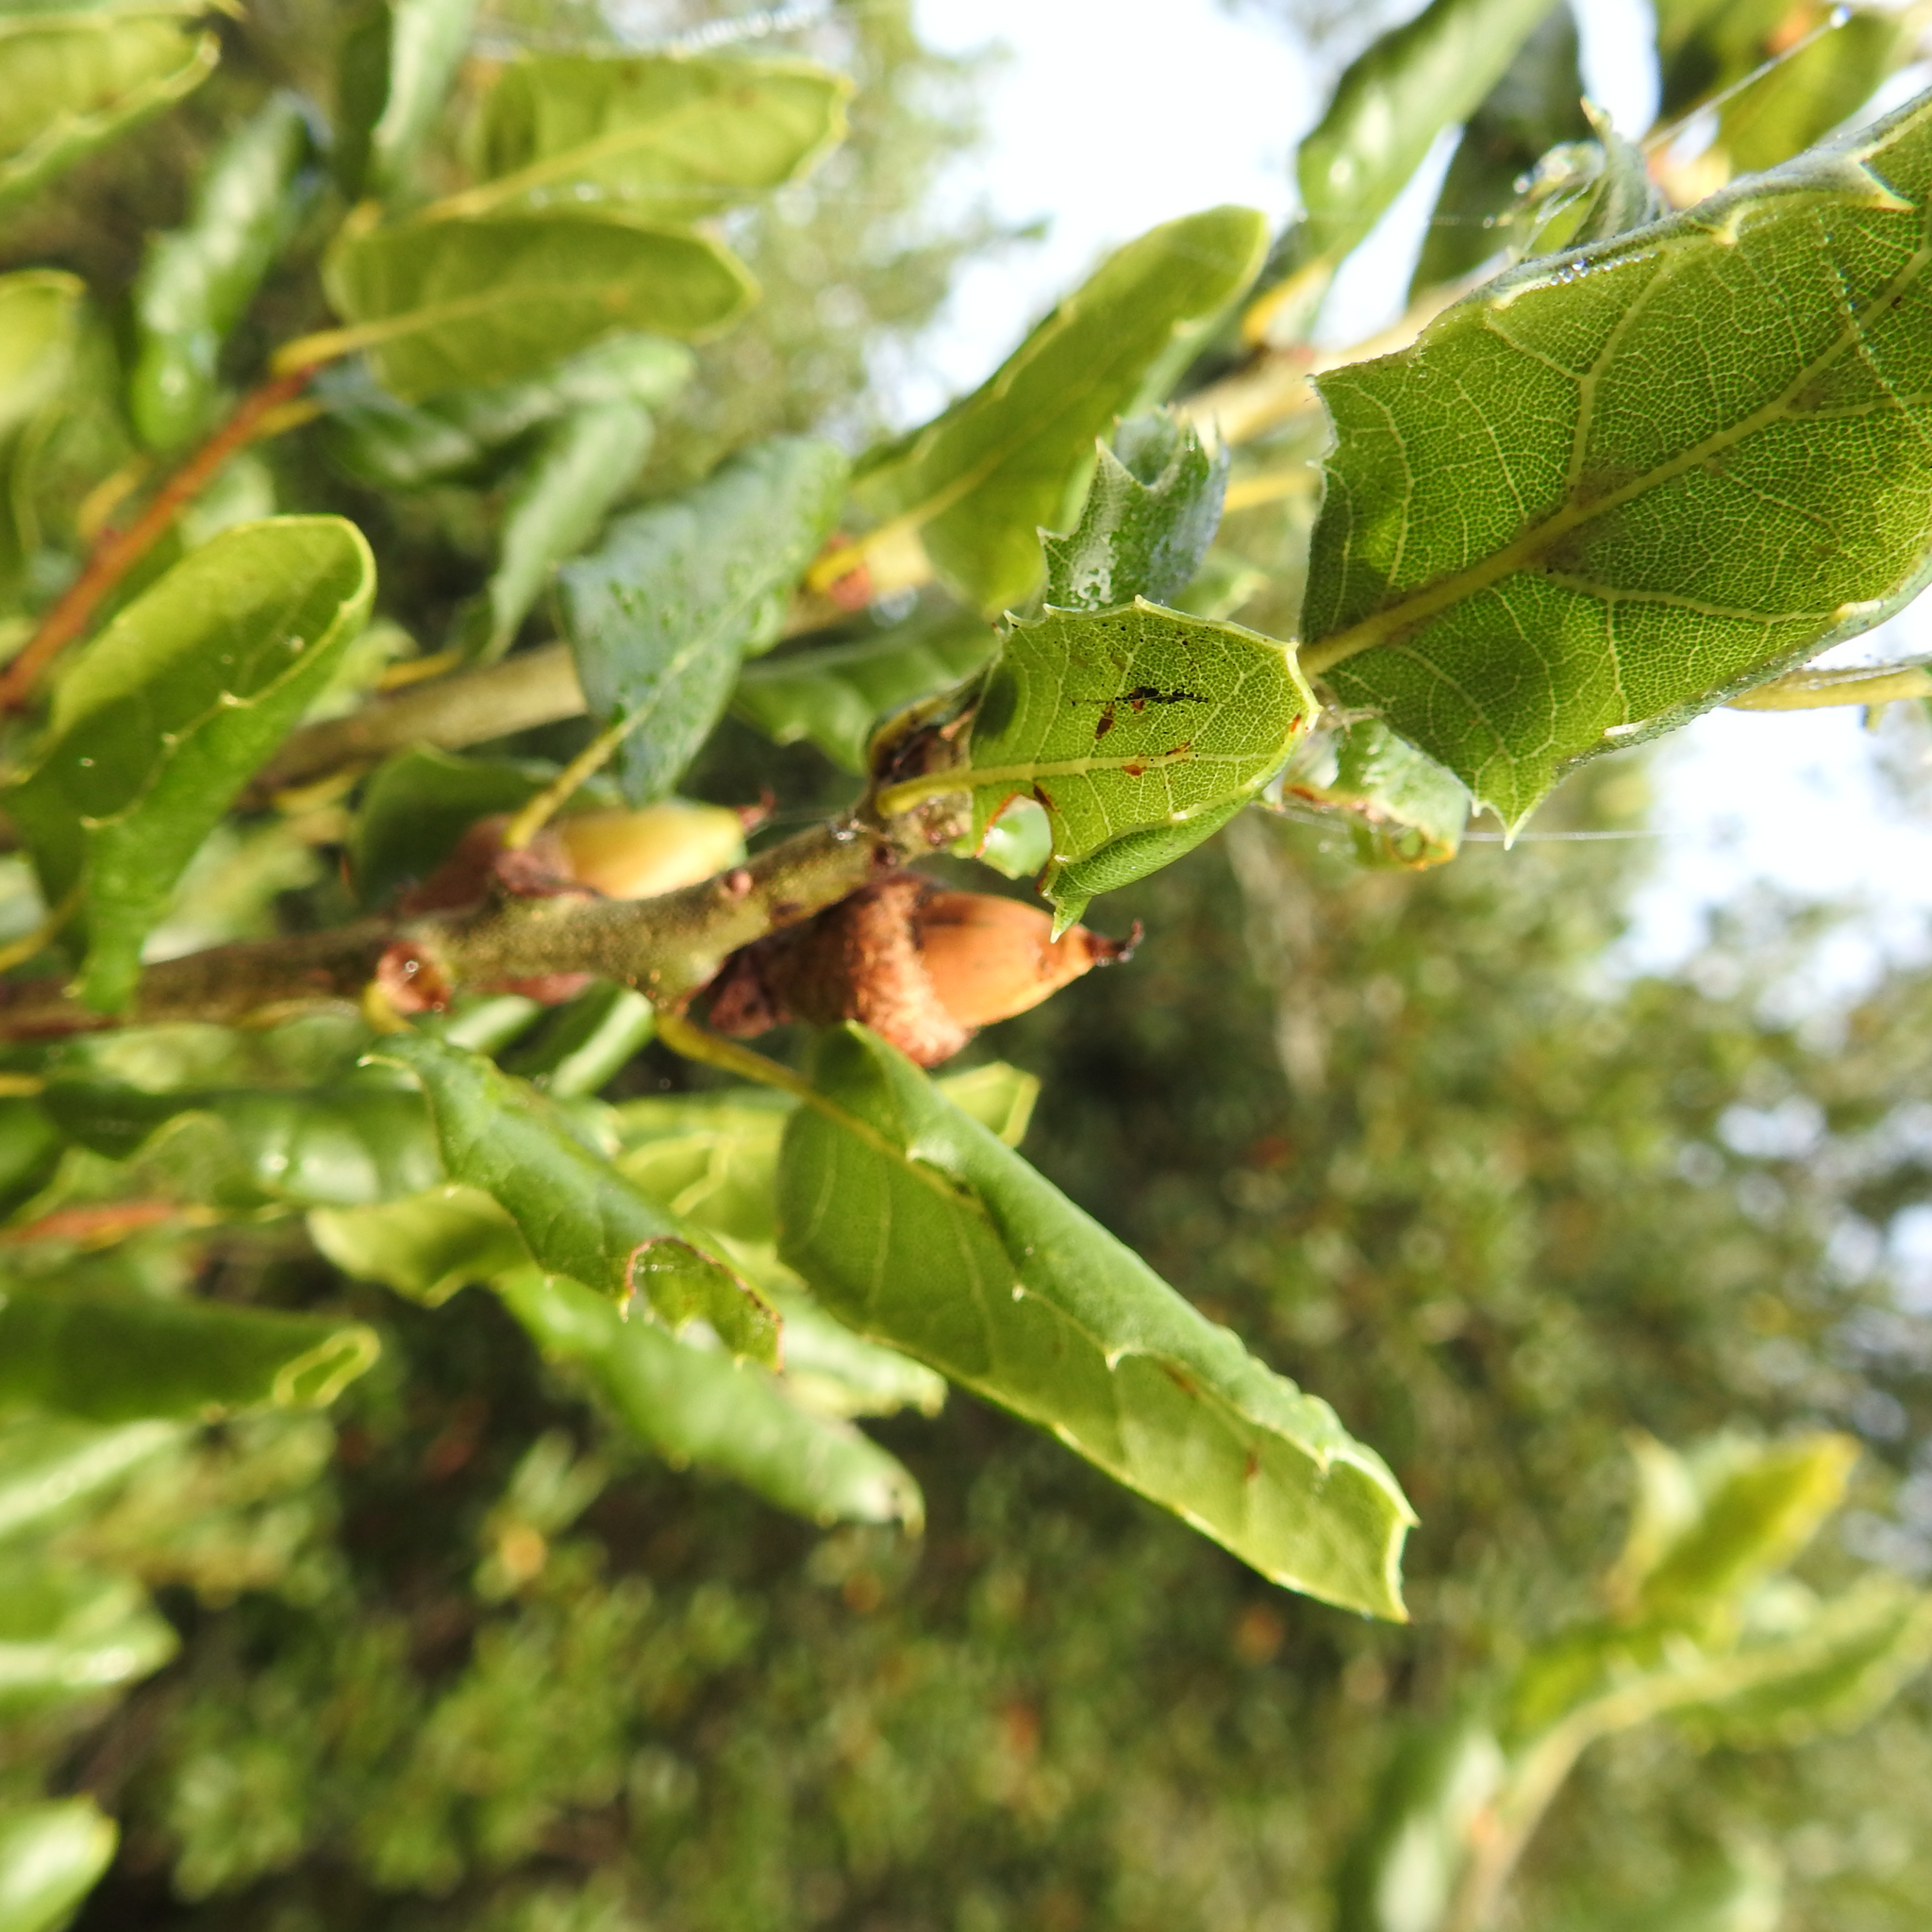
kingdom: Plantae
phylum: Tracheophyta
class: Magnoliopsida
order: Fagales
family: Fagaceae
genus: Quercus
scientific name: Quercus agrifolia
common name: California live oak
